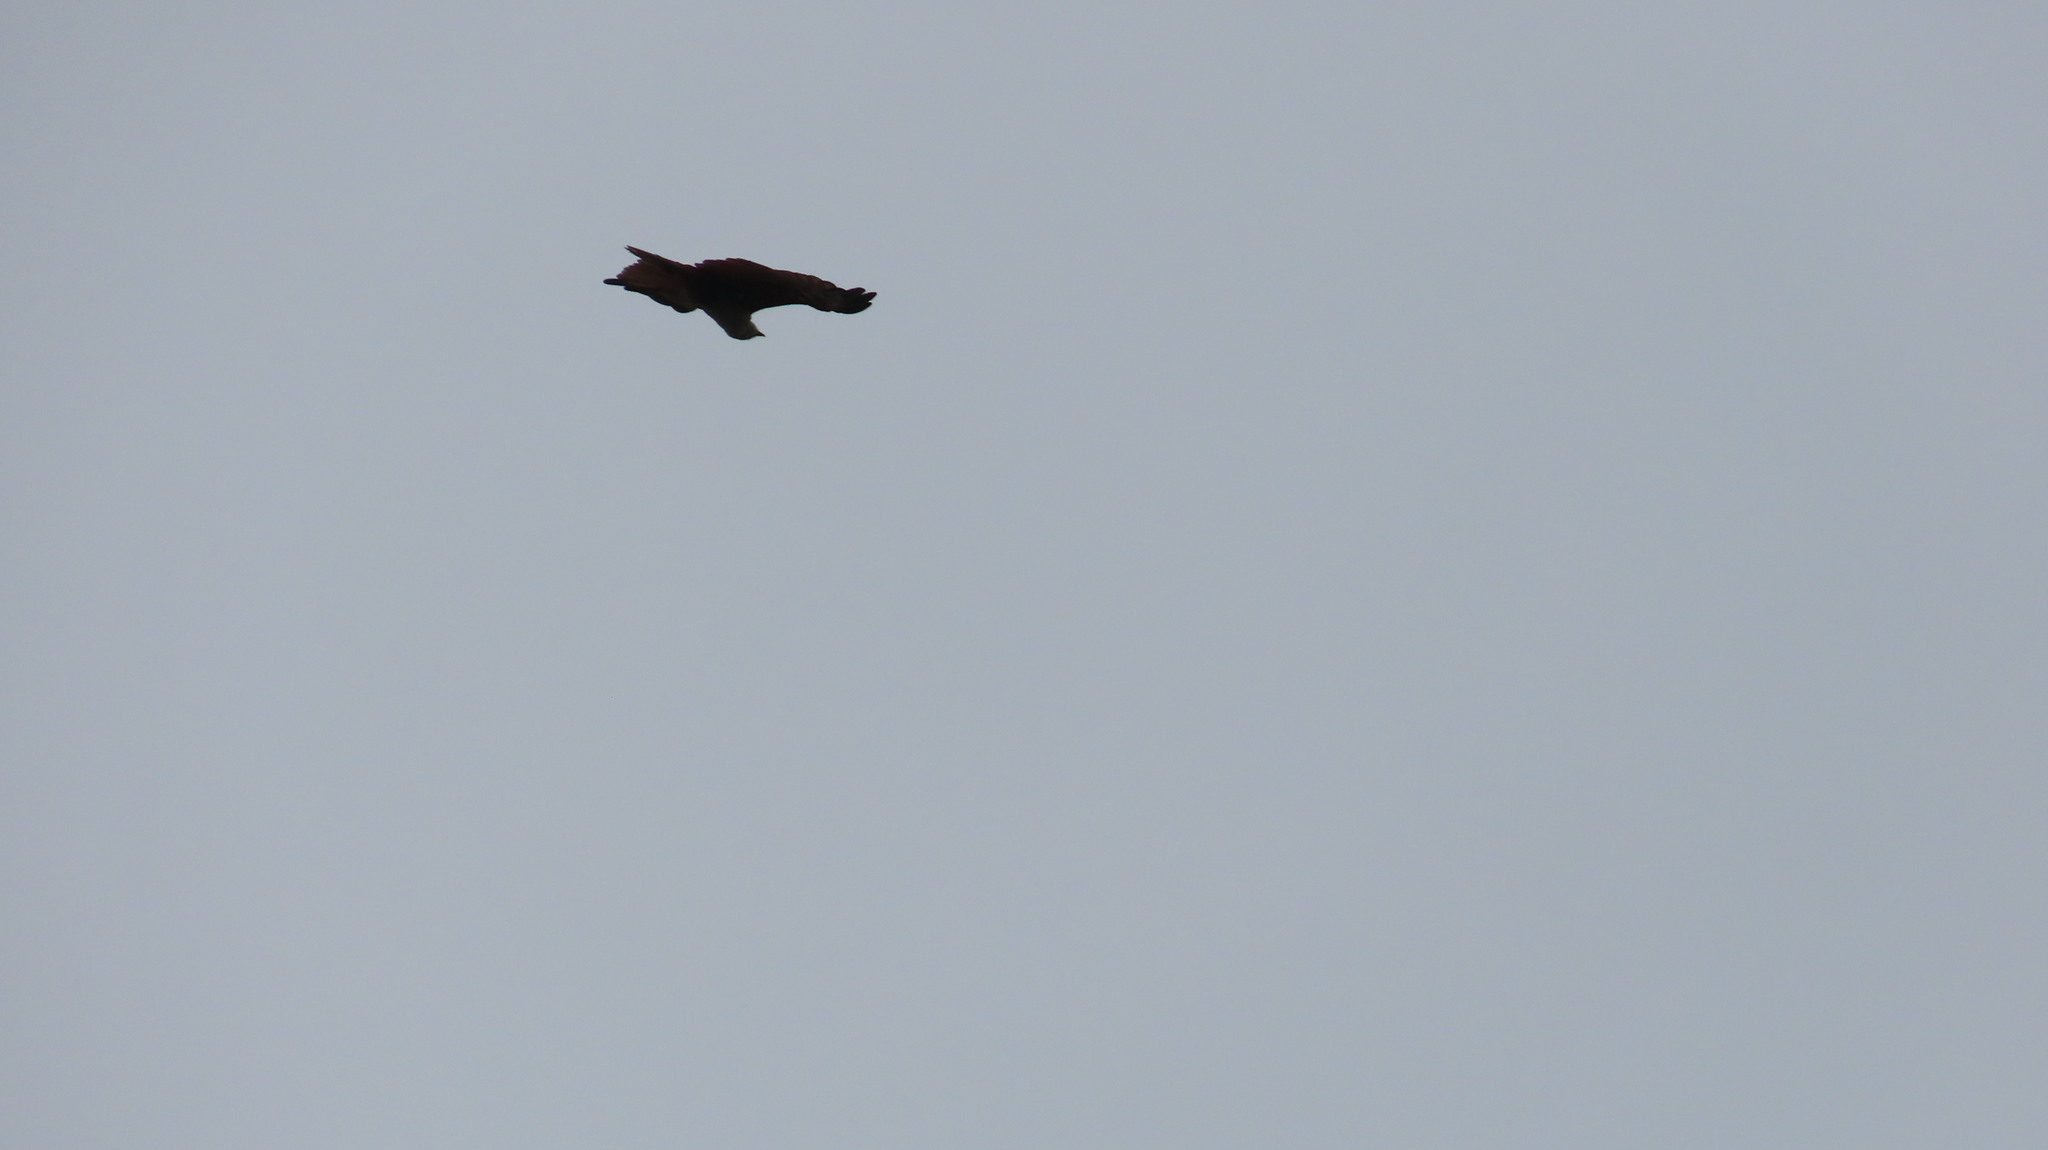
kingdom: Animalia
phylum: Chordata
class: Aves
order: Accipitriformes
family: Accipitridae
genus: Haliastur
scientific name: Haliastur indus
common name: Brahminy kite
